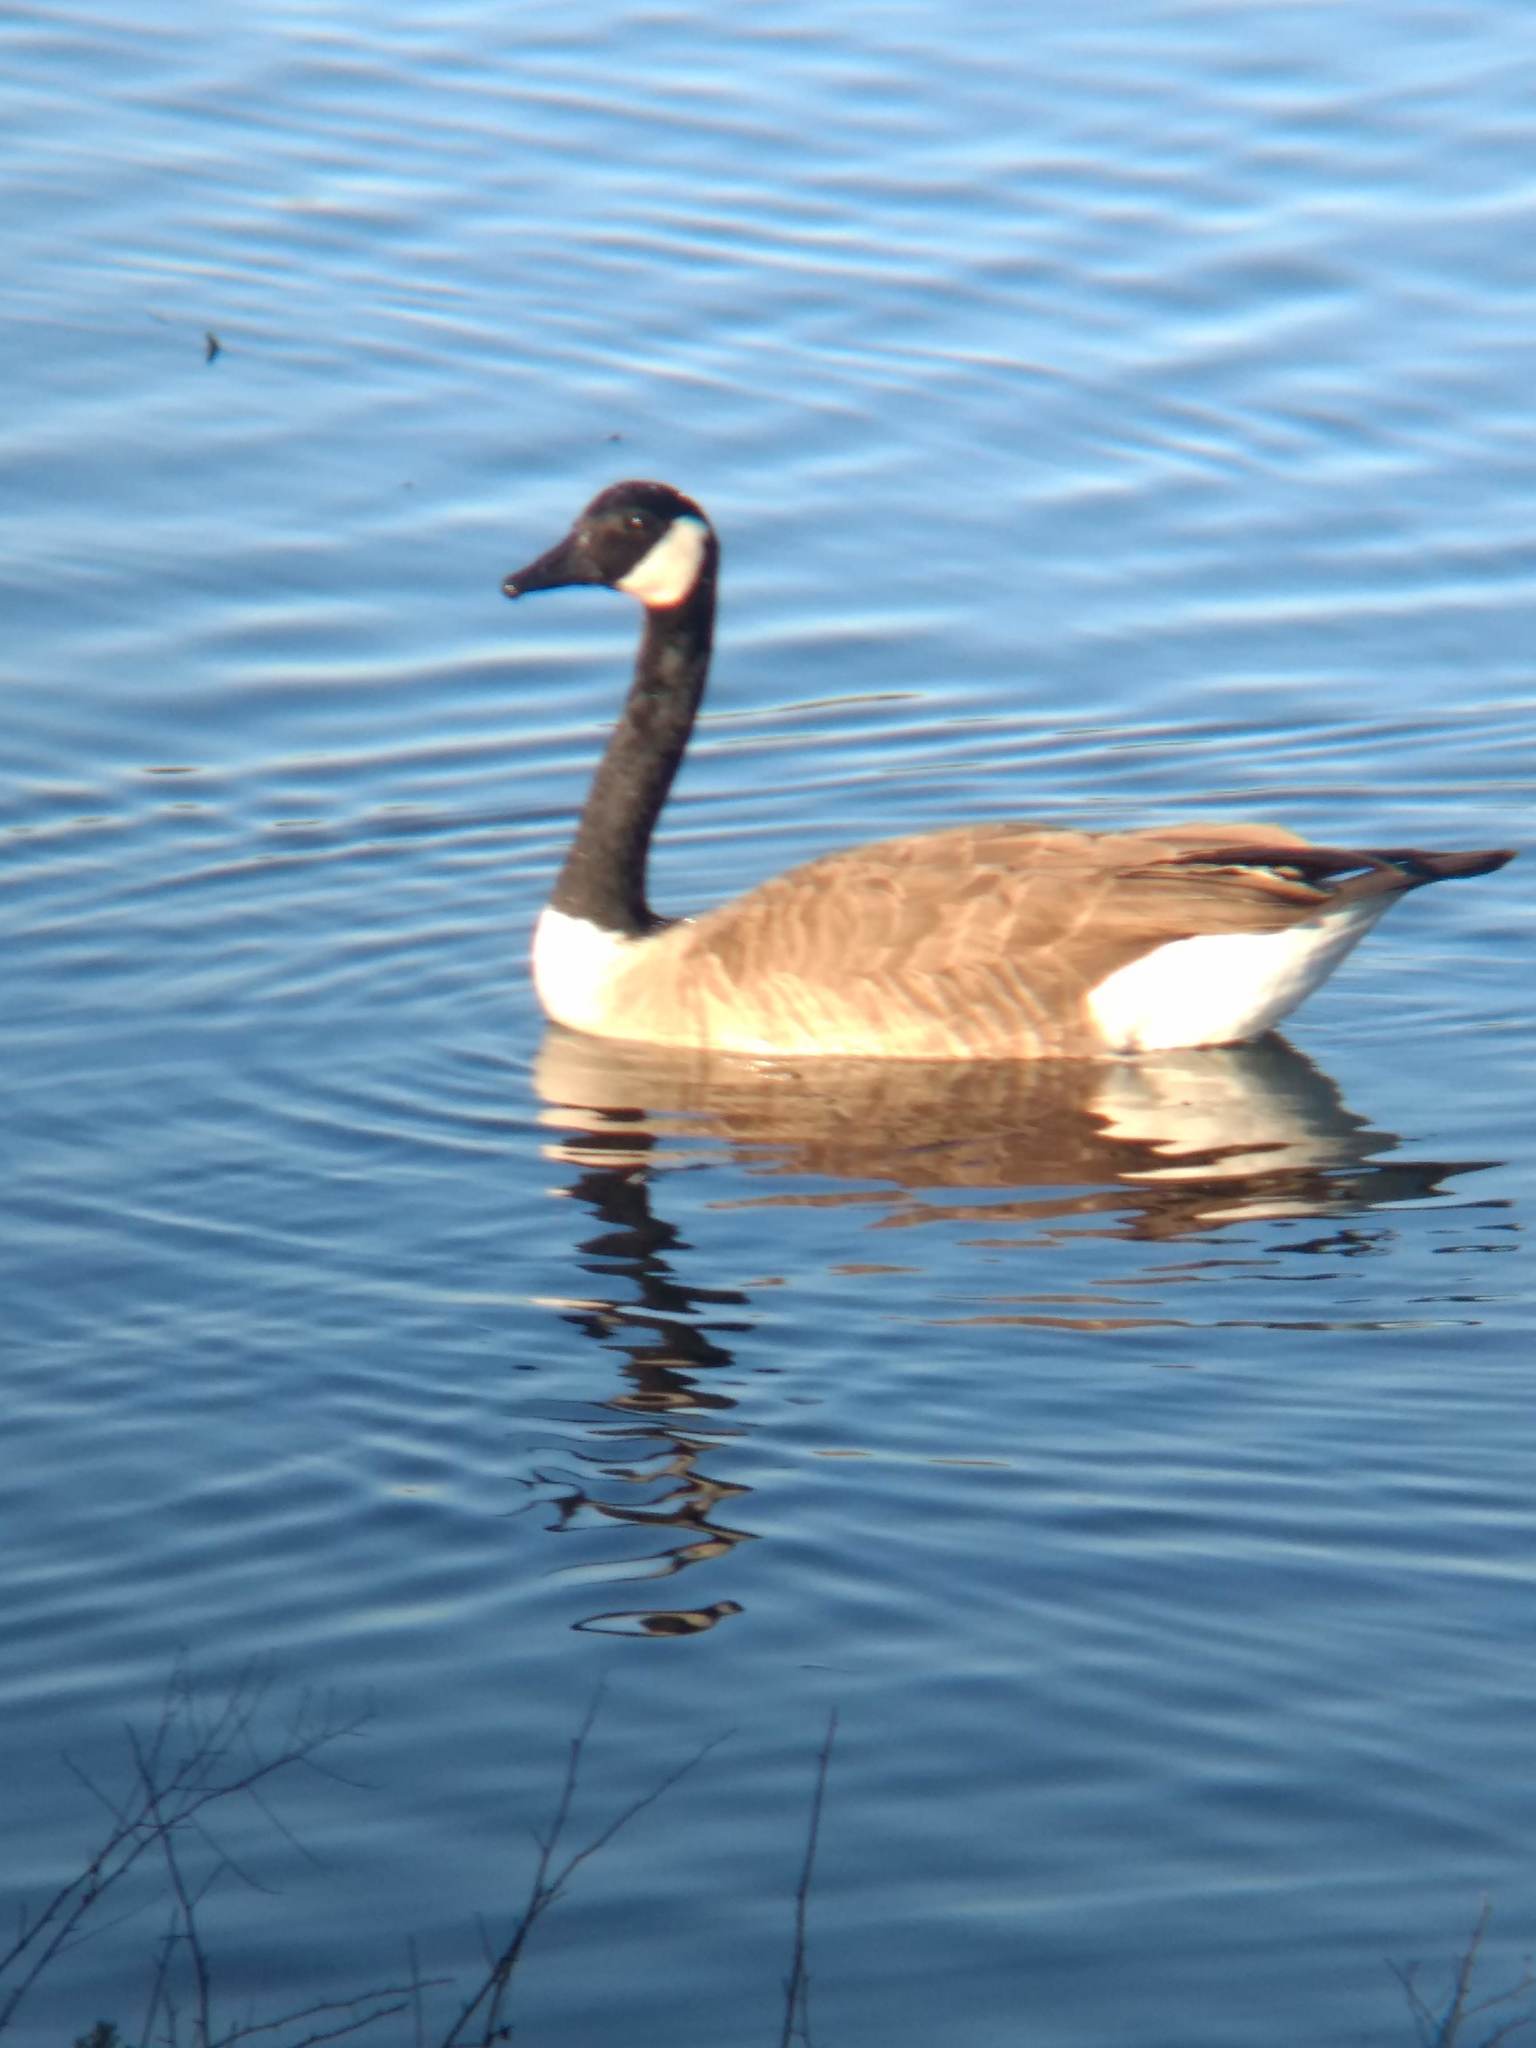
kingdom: Animalia
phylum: Chordata
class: Aves
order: Anseriformes
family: Anatidae
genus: Branta
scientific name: Branta canadensis
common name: Canada goose
